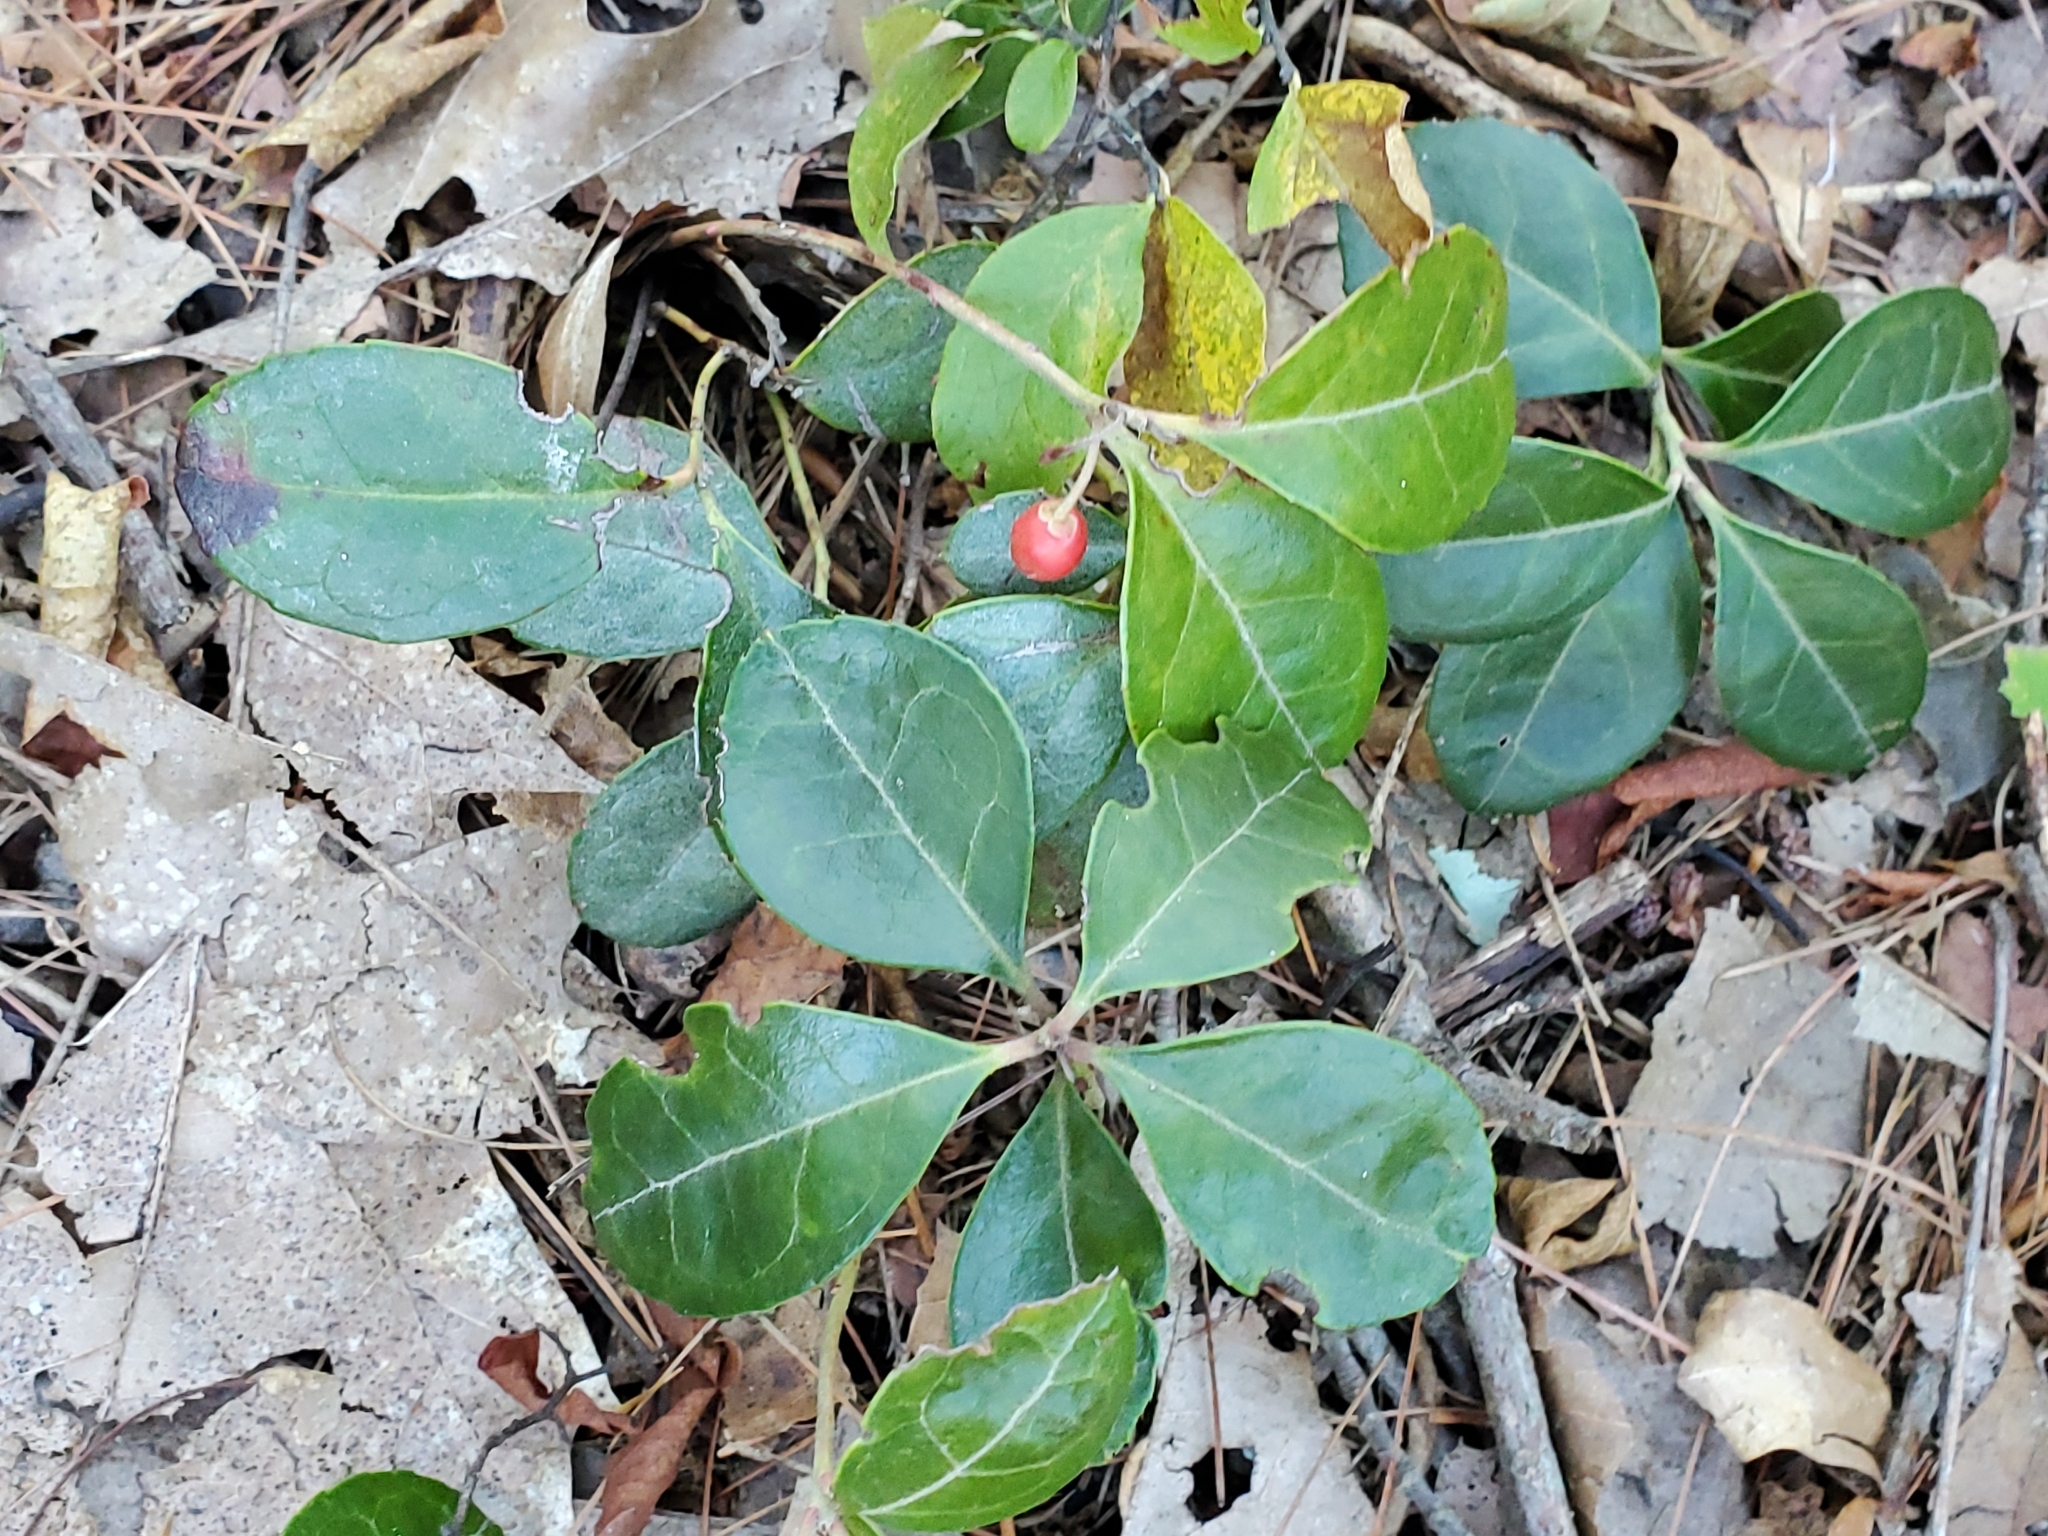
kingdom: Plantae
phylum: Tracheophyta
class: Magnoliopsida
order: Ericales
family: Ericaceae
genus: Gaultheria
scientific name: Gaultheria procumbens
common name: Checkerberry
